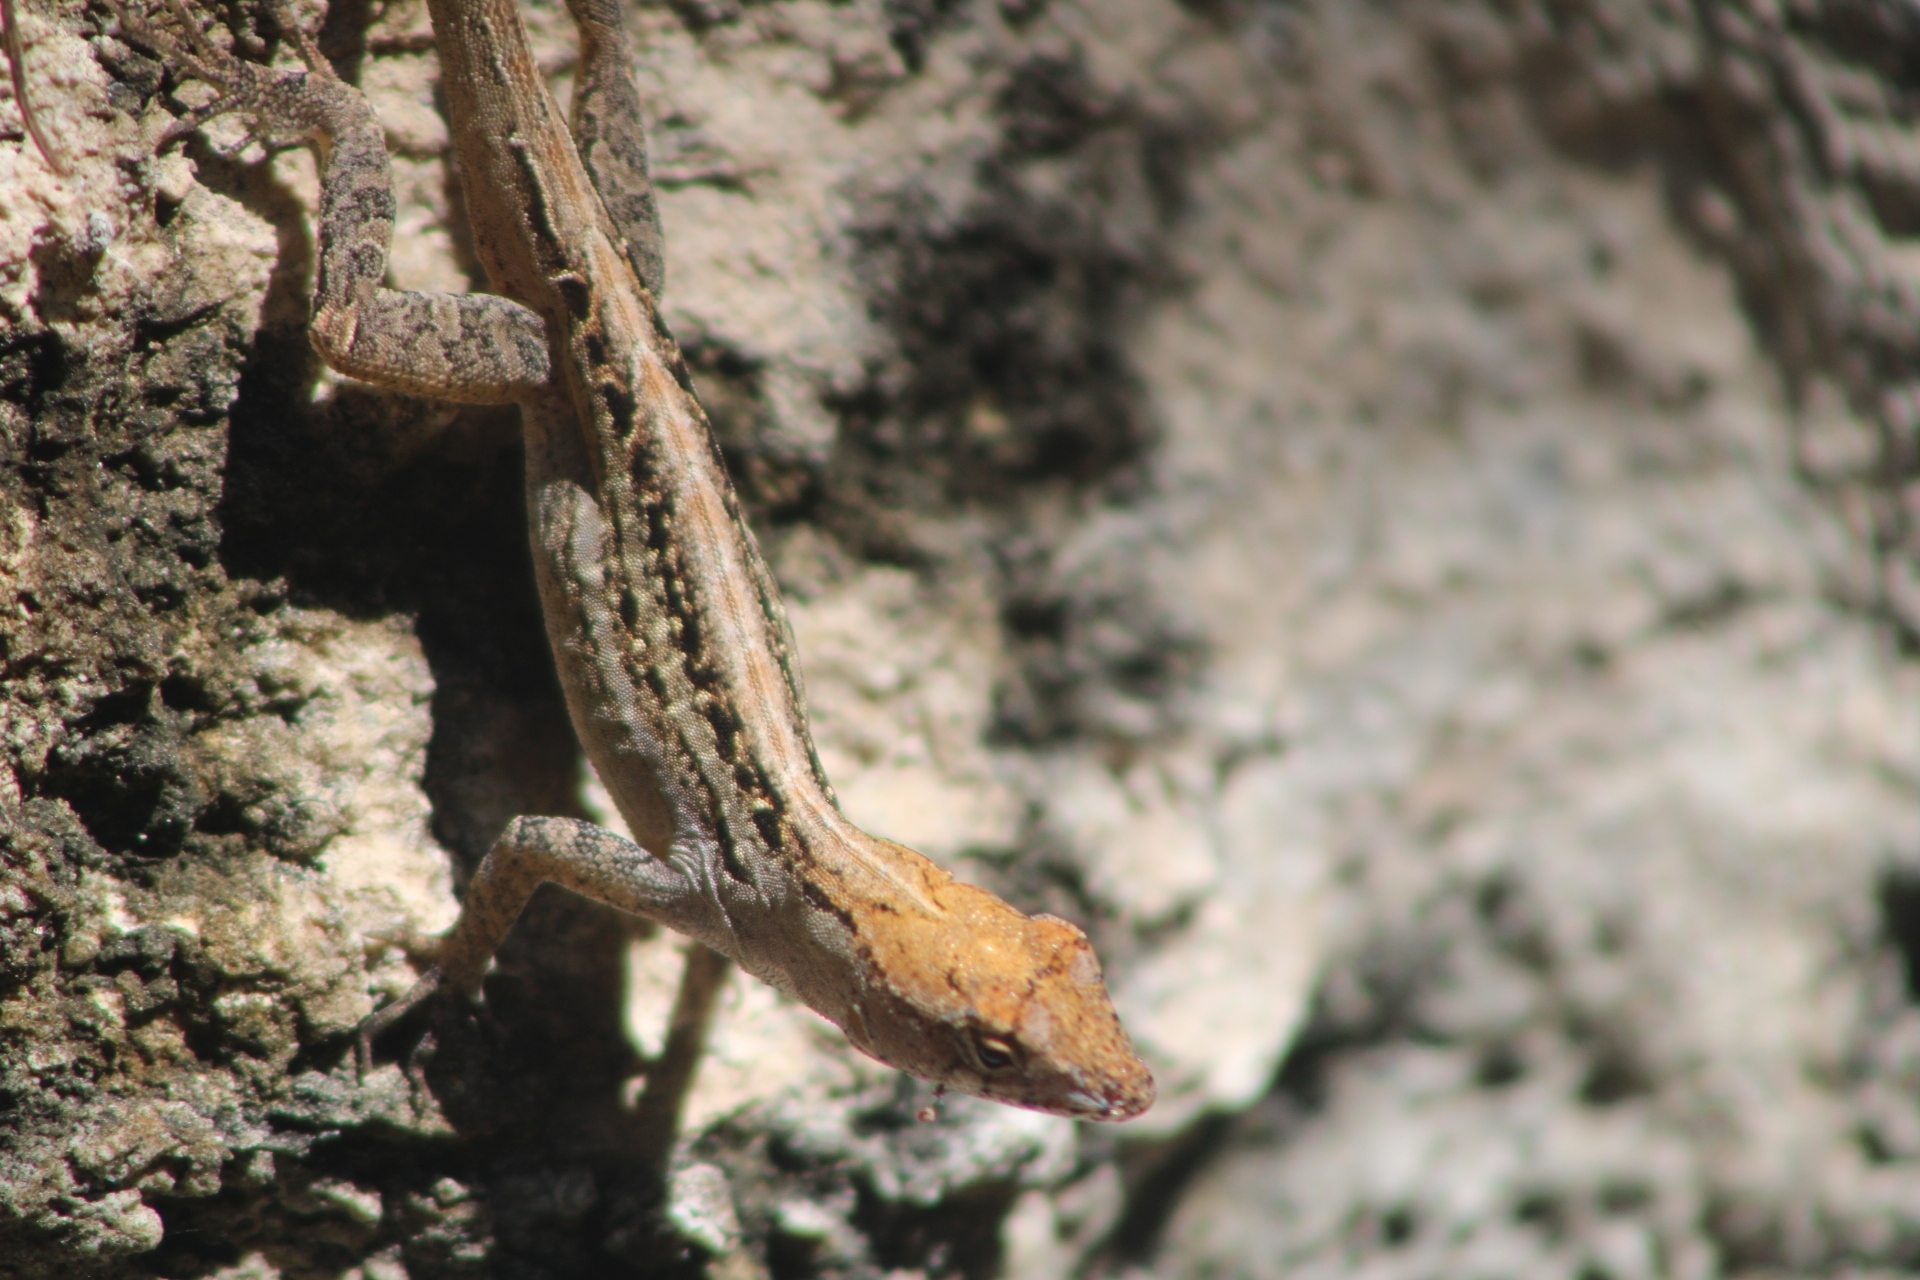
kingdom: Animalia
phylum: Chordata
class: Squamata
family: Dactyloidae
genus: Anolis
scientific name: Anolis sagrei
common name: Brown anole
